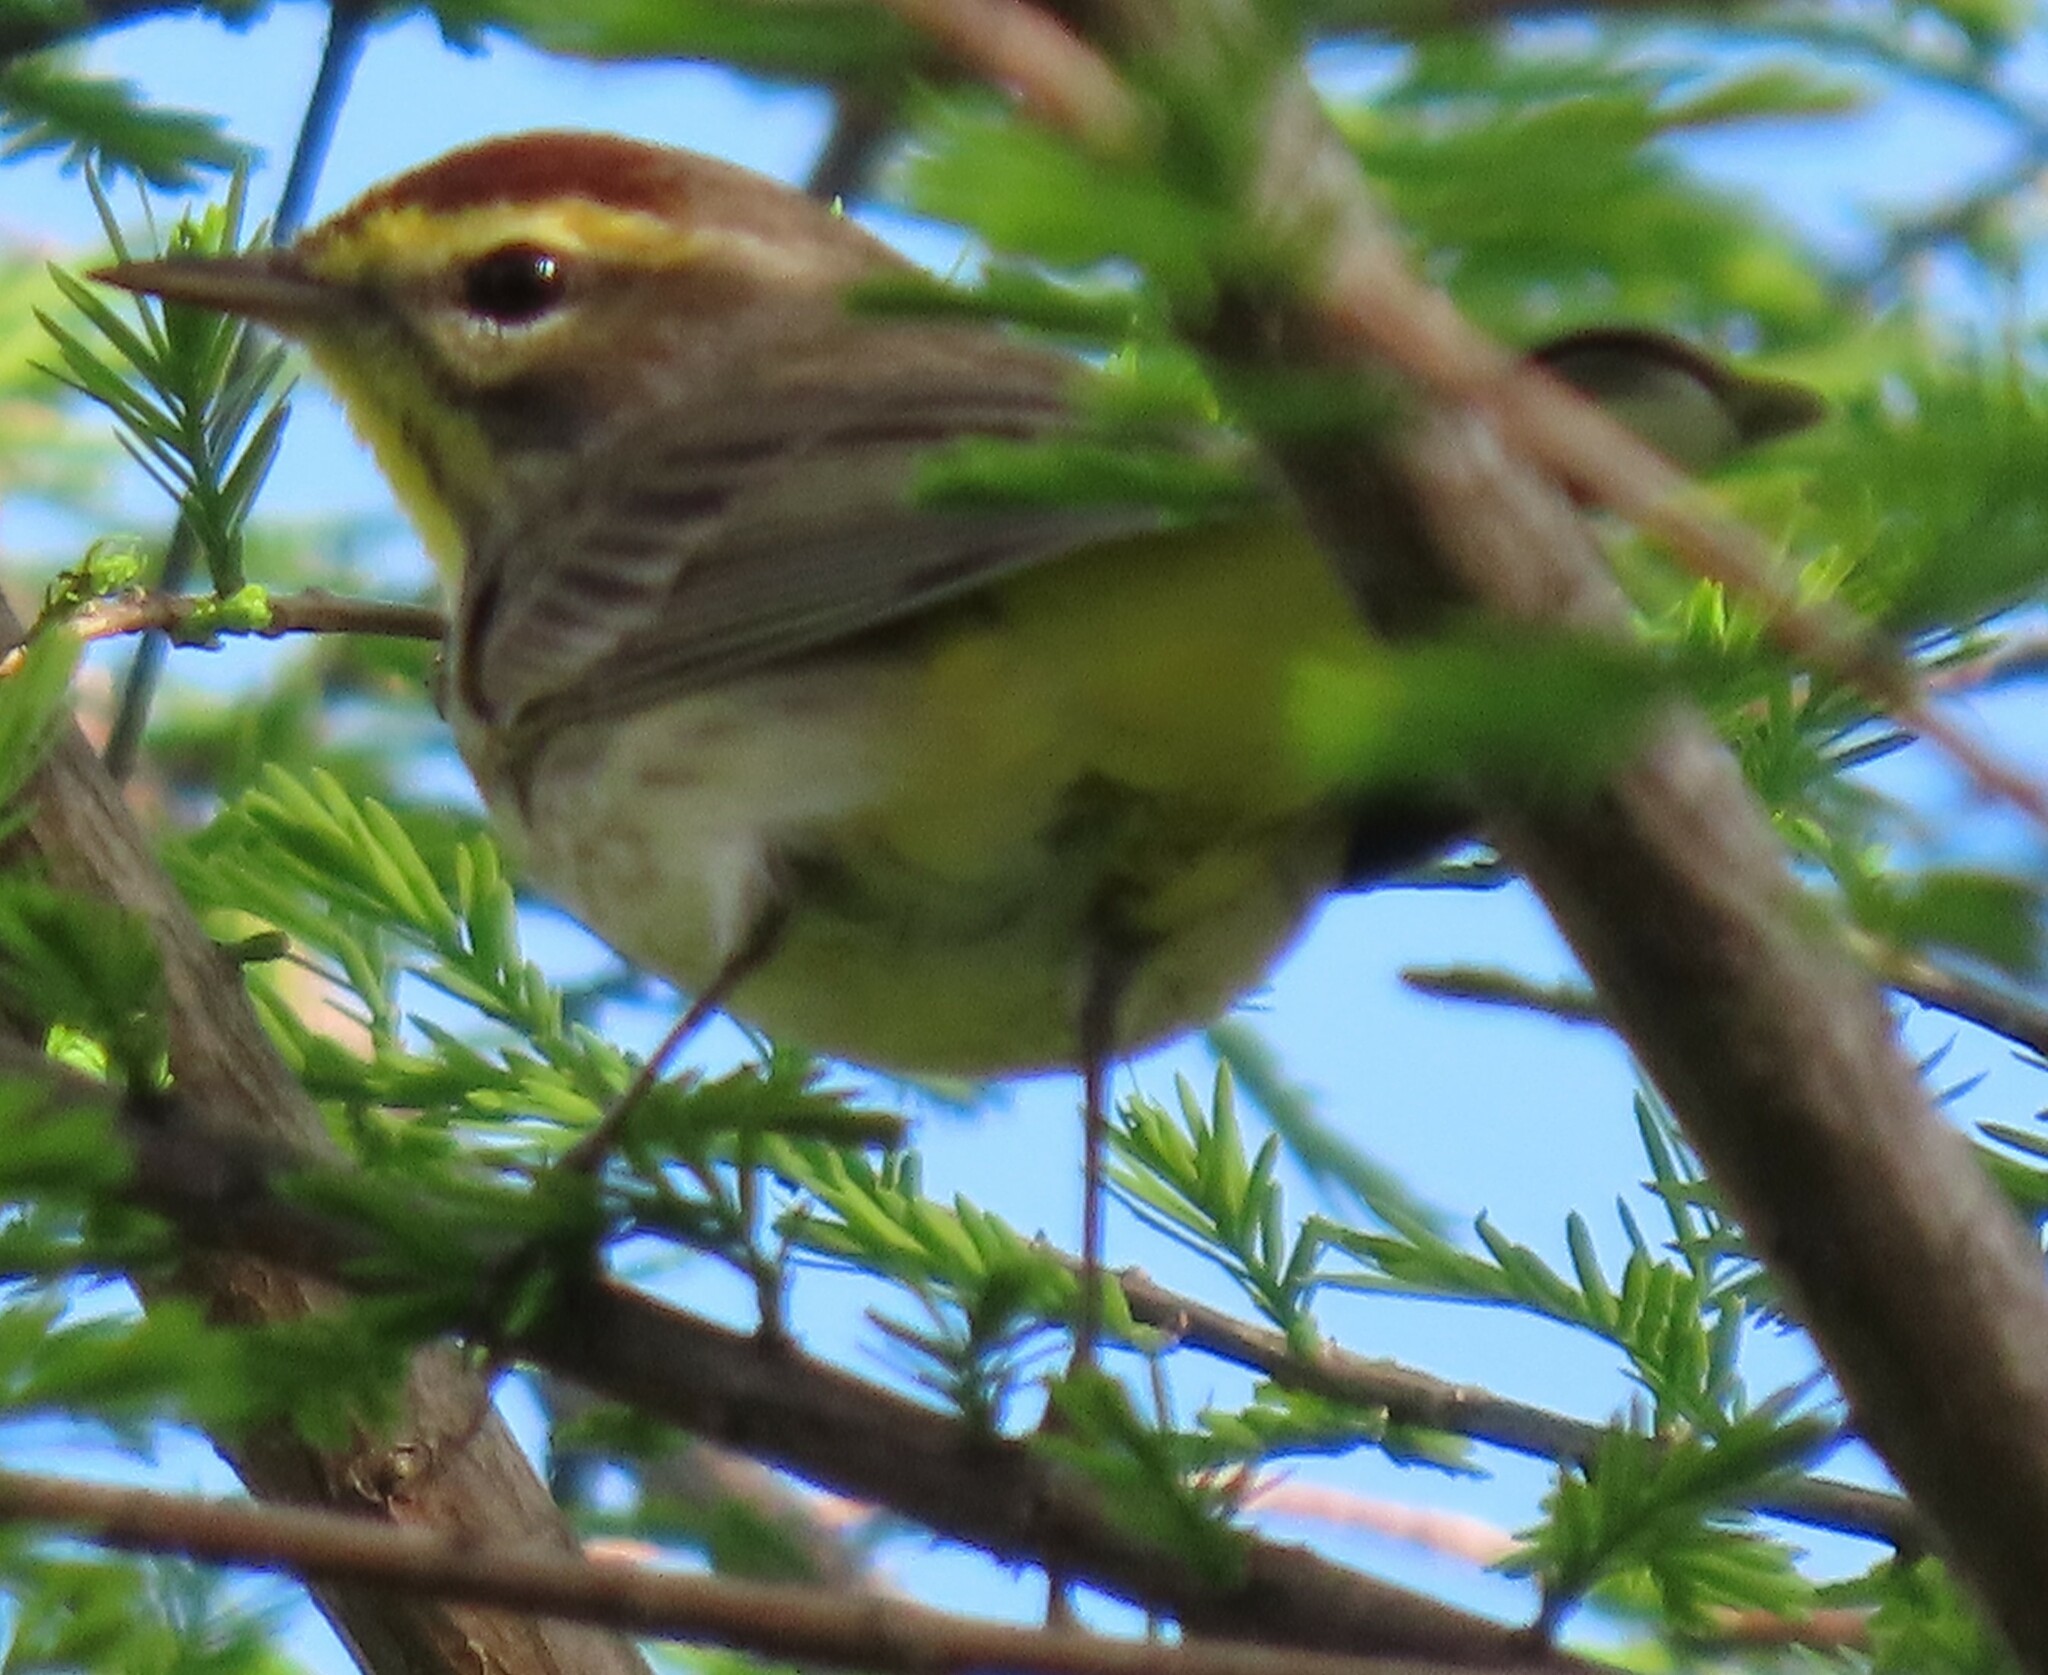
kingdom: Animalia
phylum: Chordata
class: Aves
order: Passeriformes
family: Parulidae
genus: Setophaga
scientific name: Setophaga palmarum
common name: Palm warbler
